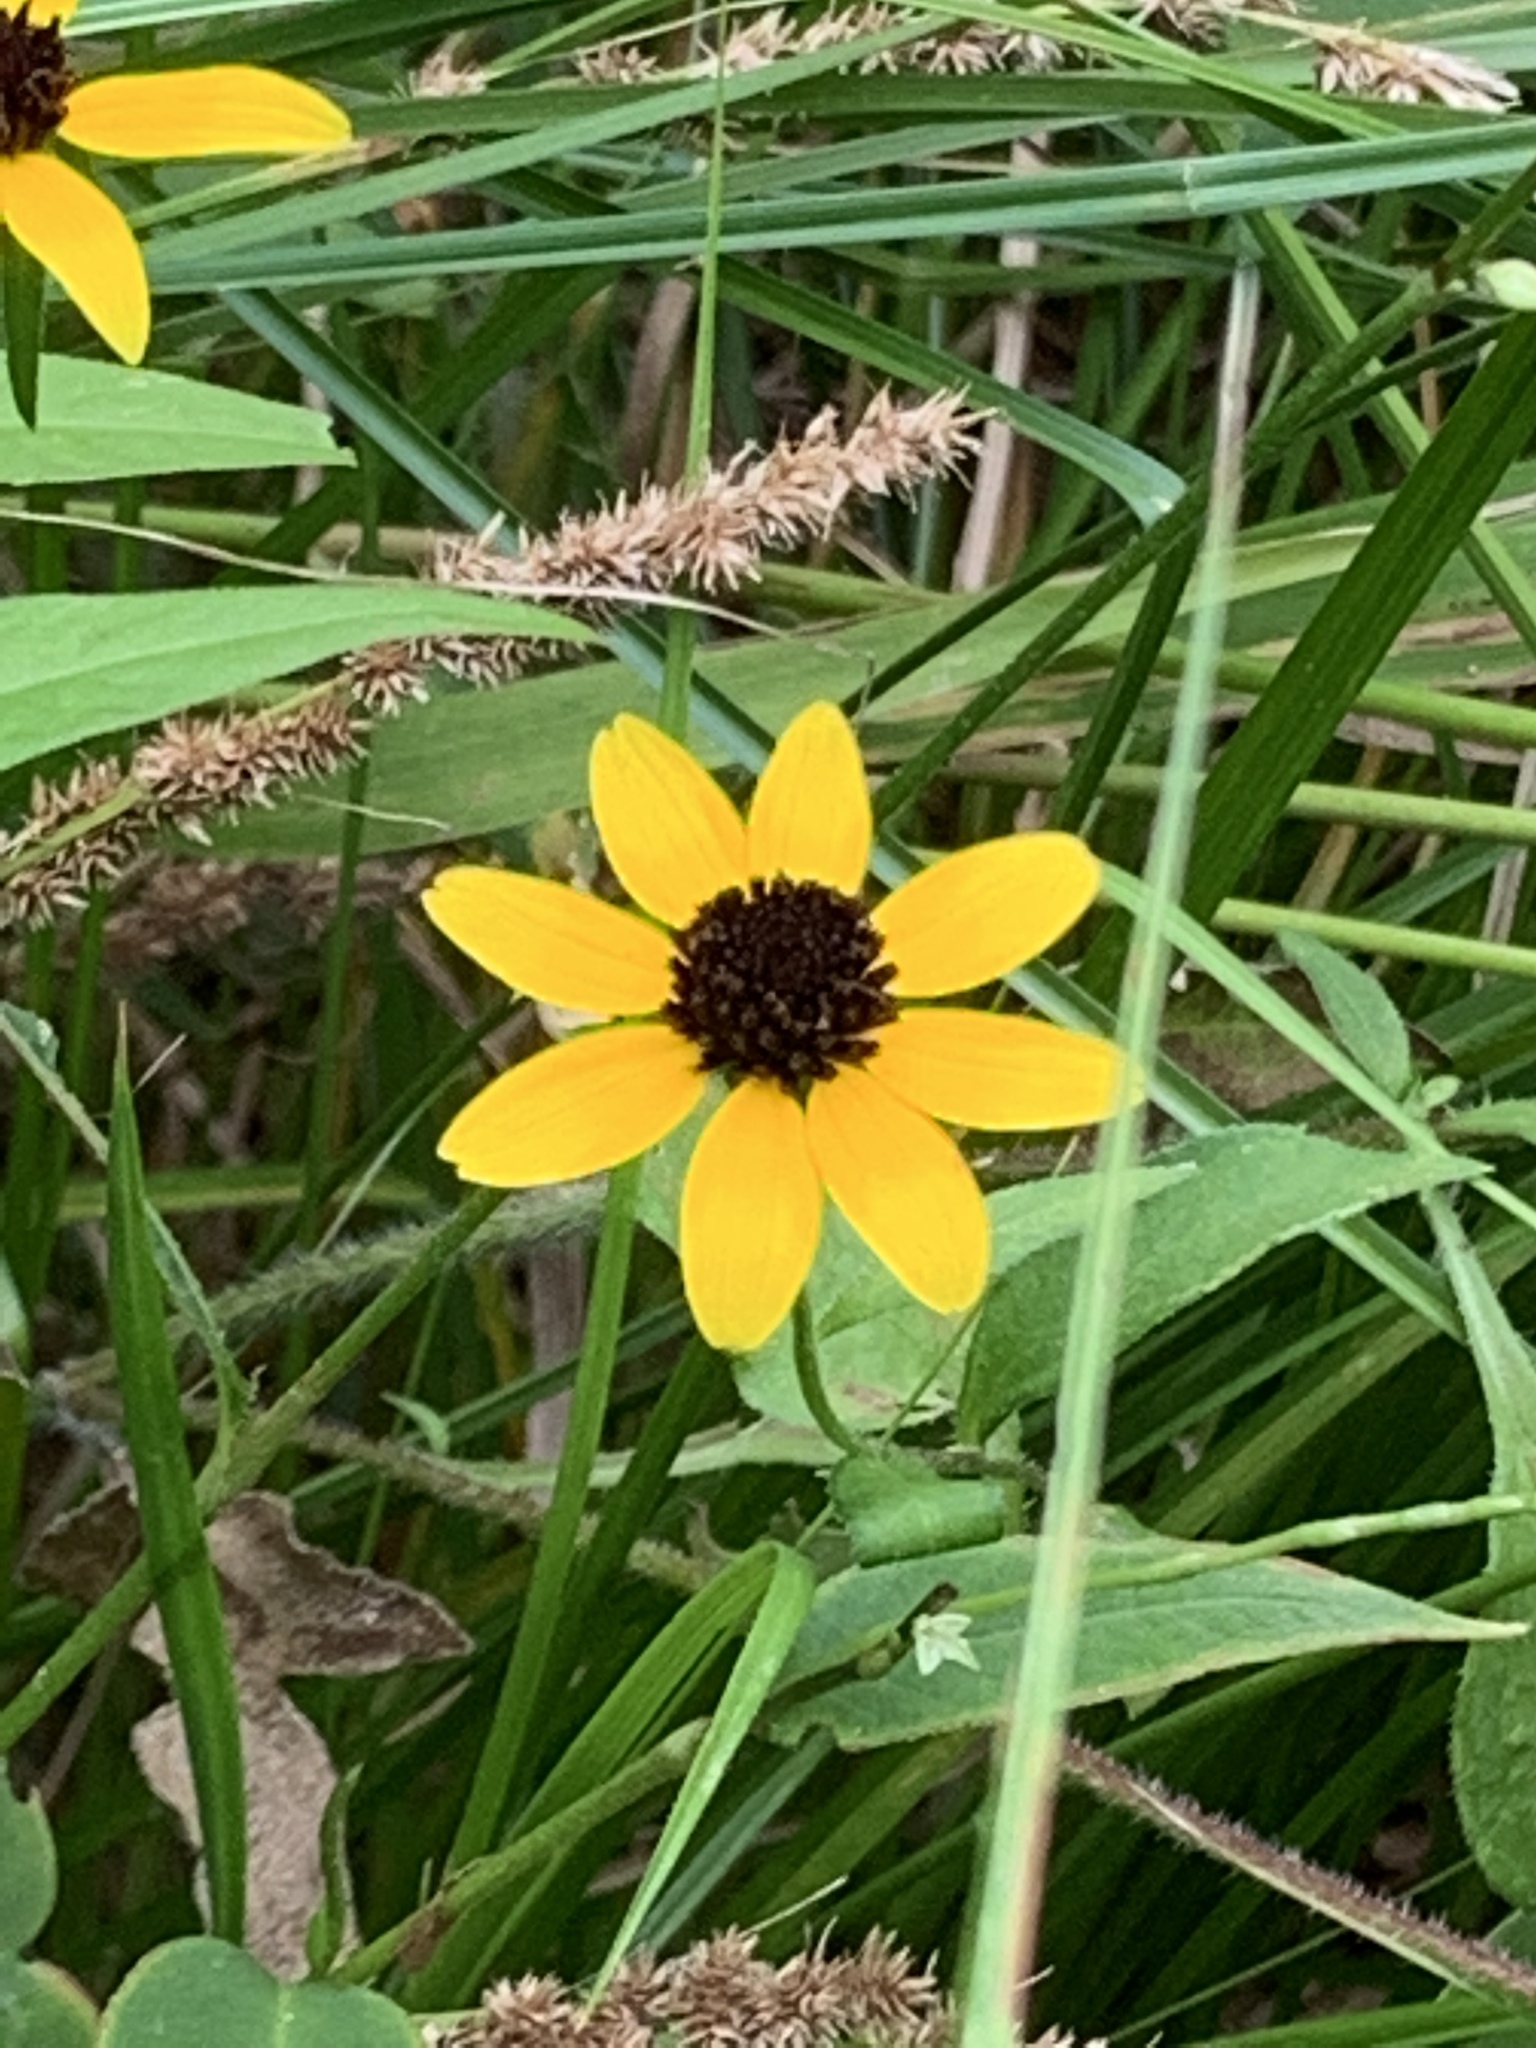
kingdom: Plantae
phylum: Tracheophyta
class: Magnoliopsida
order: Asterales
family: Asteraceae
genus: Rudbeckia
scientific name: Rudbeckia triloba
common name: Thin-leaved coneflower
